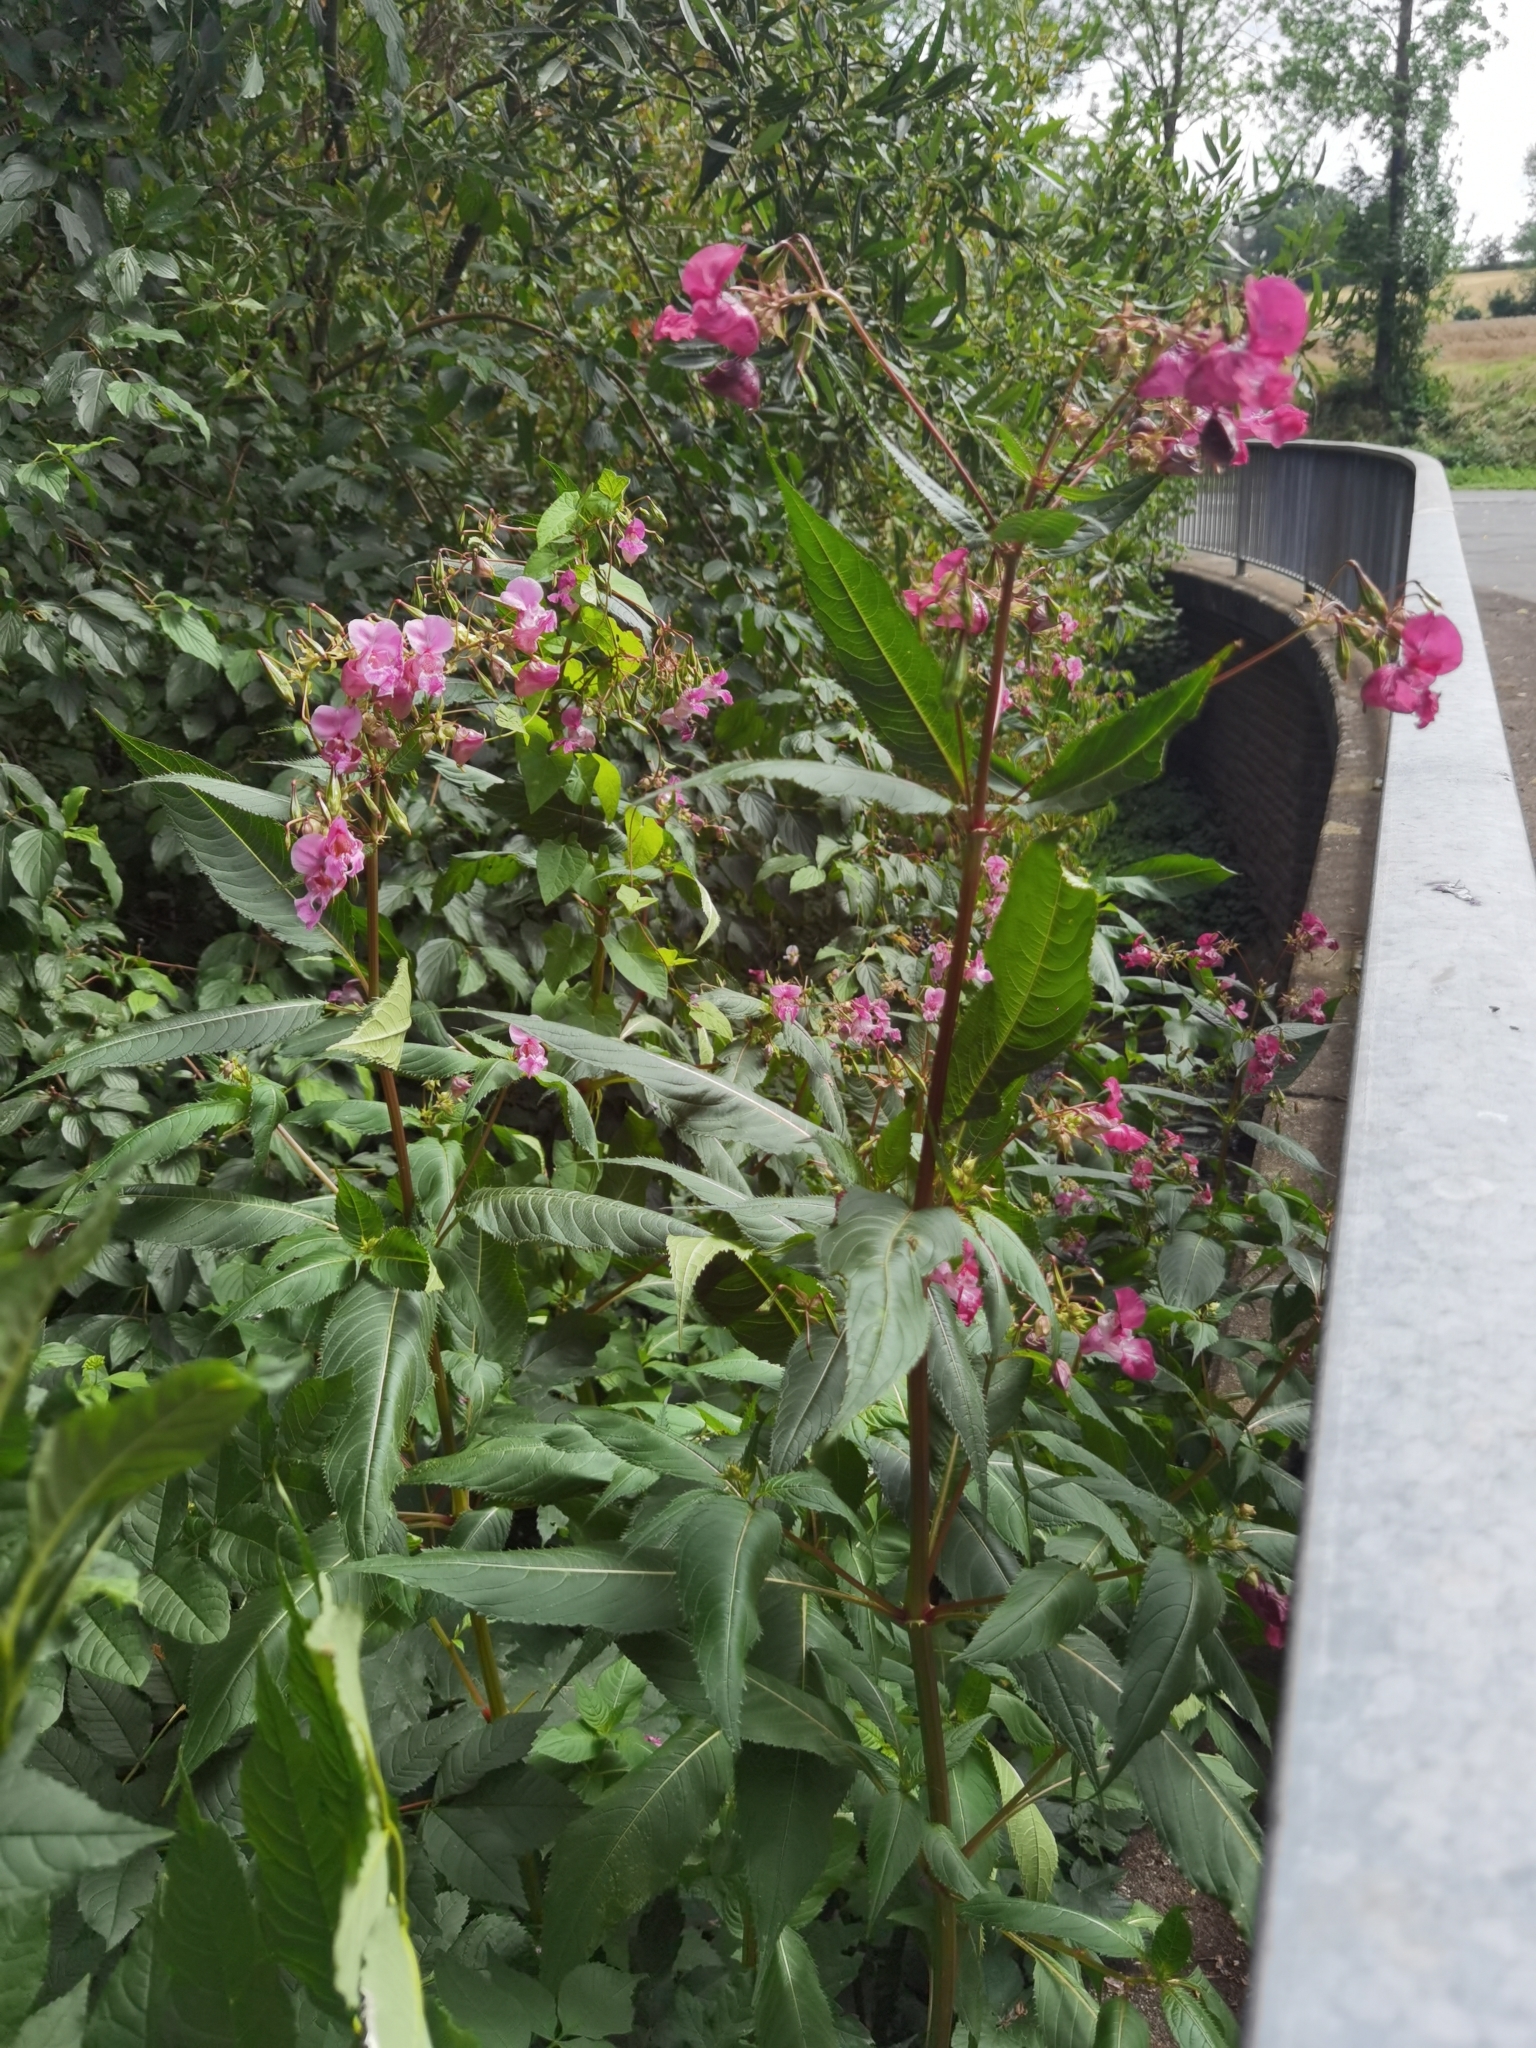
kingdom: Plantae
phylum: Tracheophyta
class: Magnoliopsida
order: Ericales
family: Balsaminaceae
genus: Impatiens
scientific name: Impatiens glandulifera
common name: Himalayan balsam
